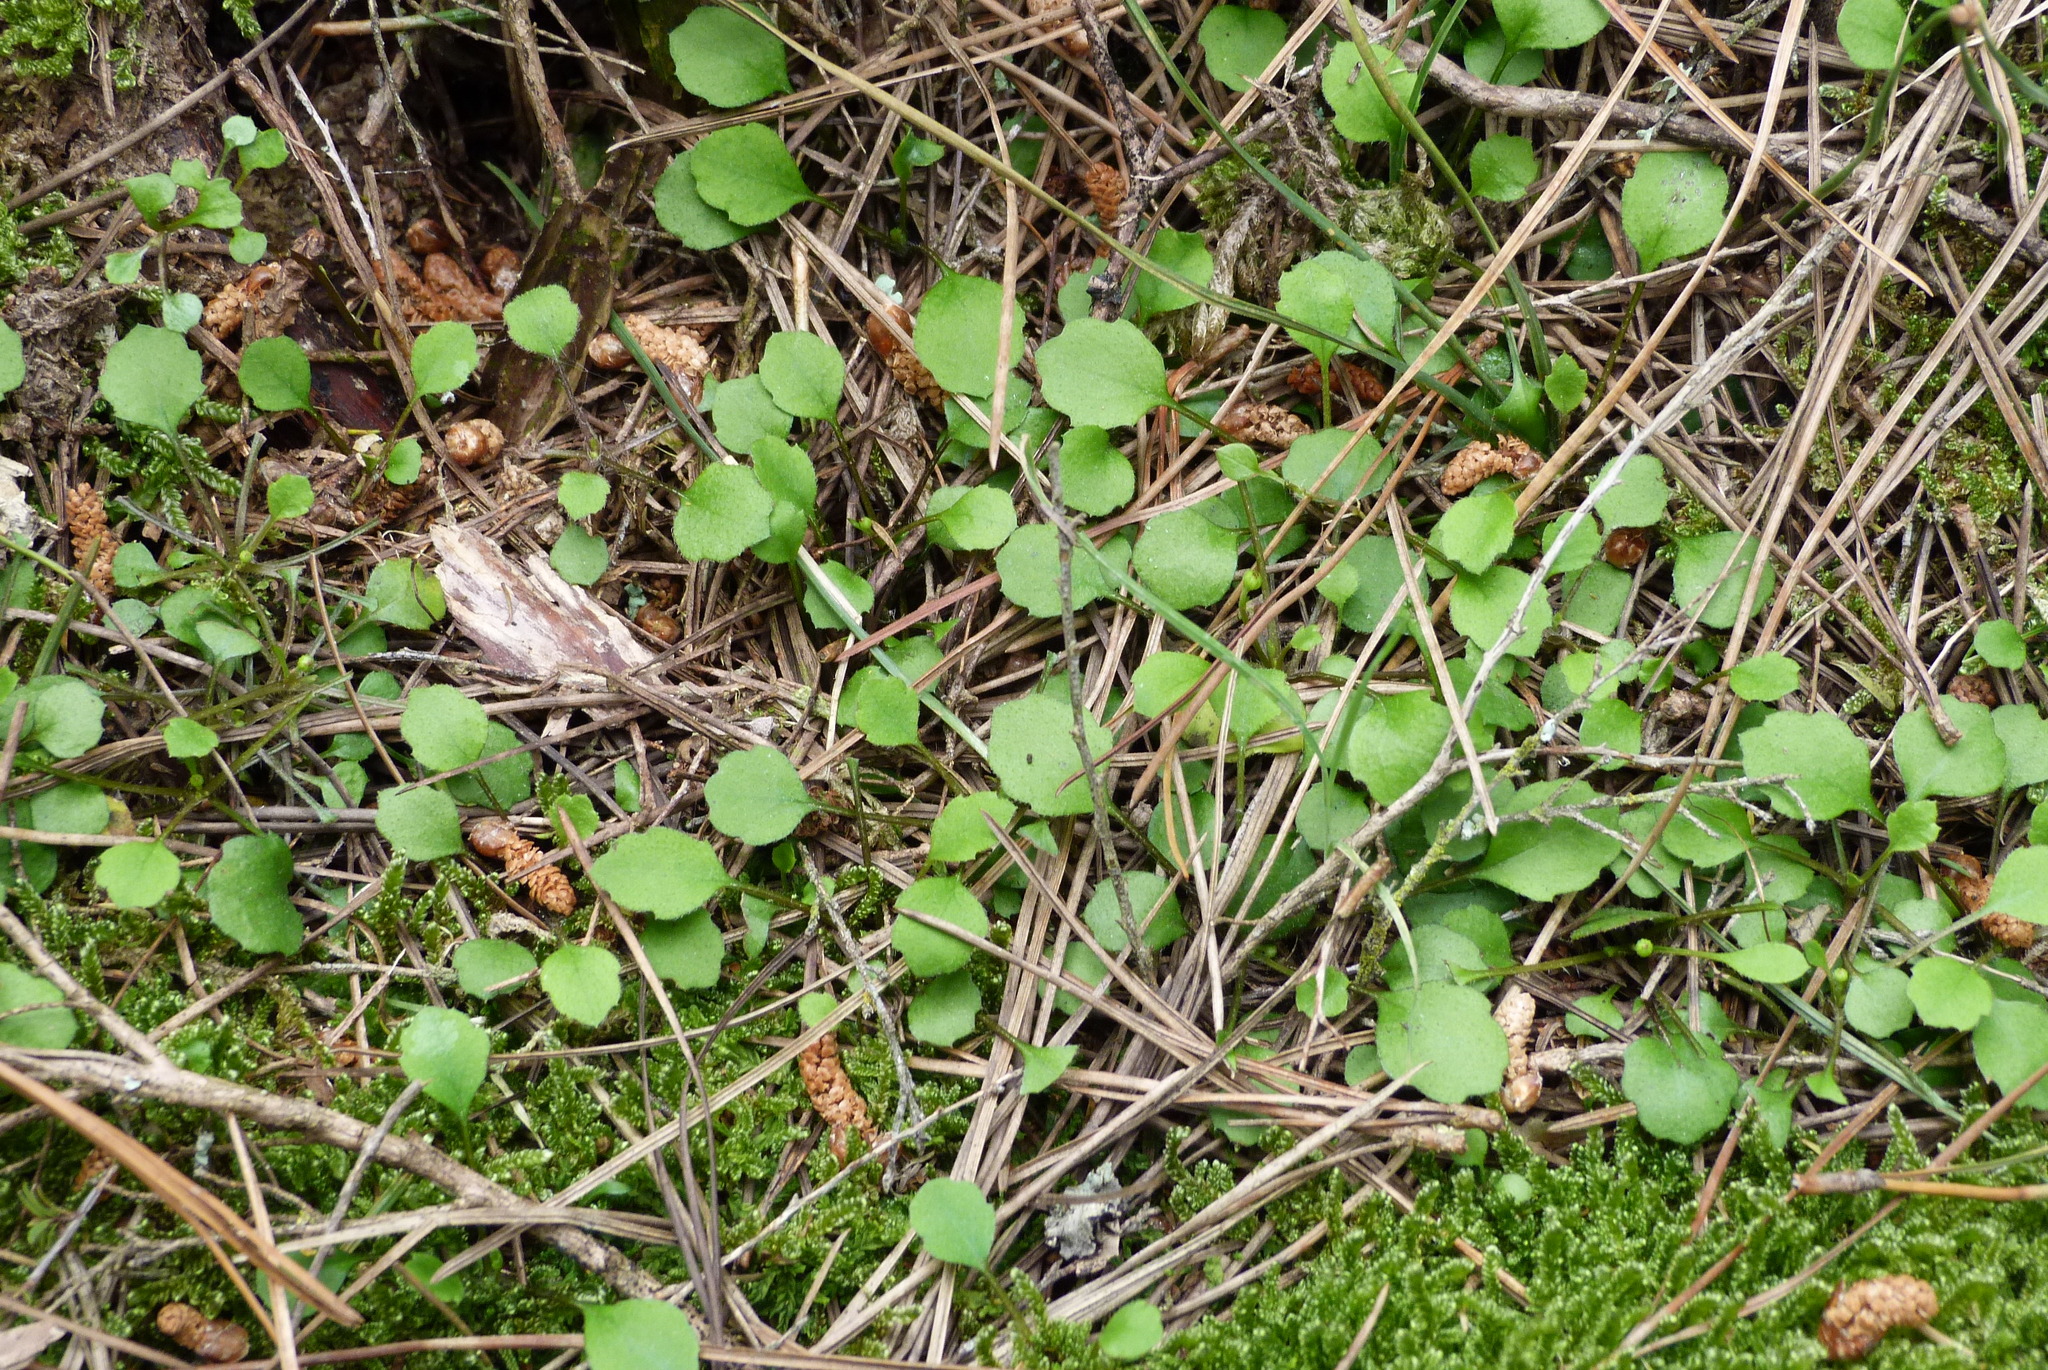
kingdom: Plantae
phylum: Tracheophyta
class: Magnoliopsida
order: Asterales
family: Asteraceae
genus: Lagenophora
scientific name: Lagenophora strangulata
